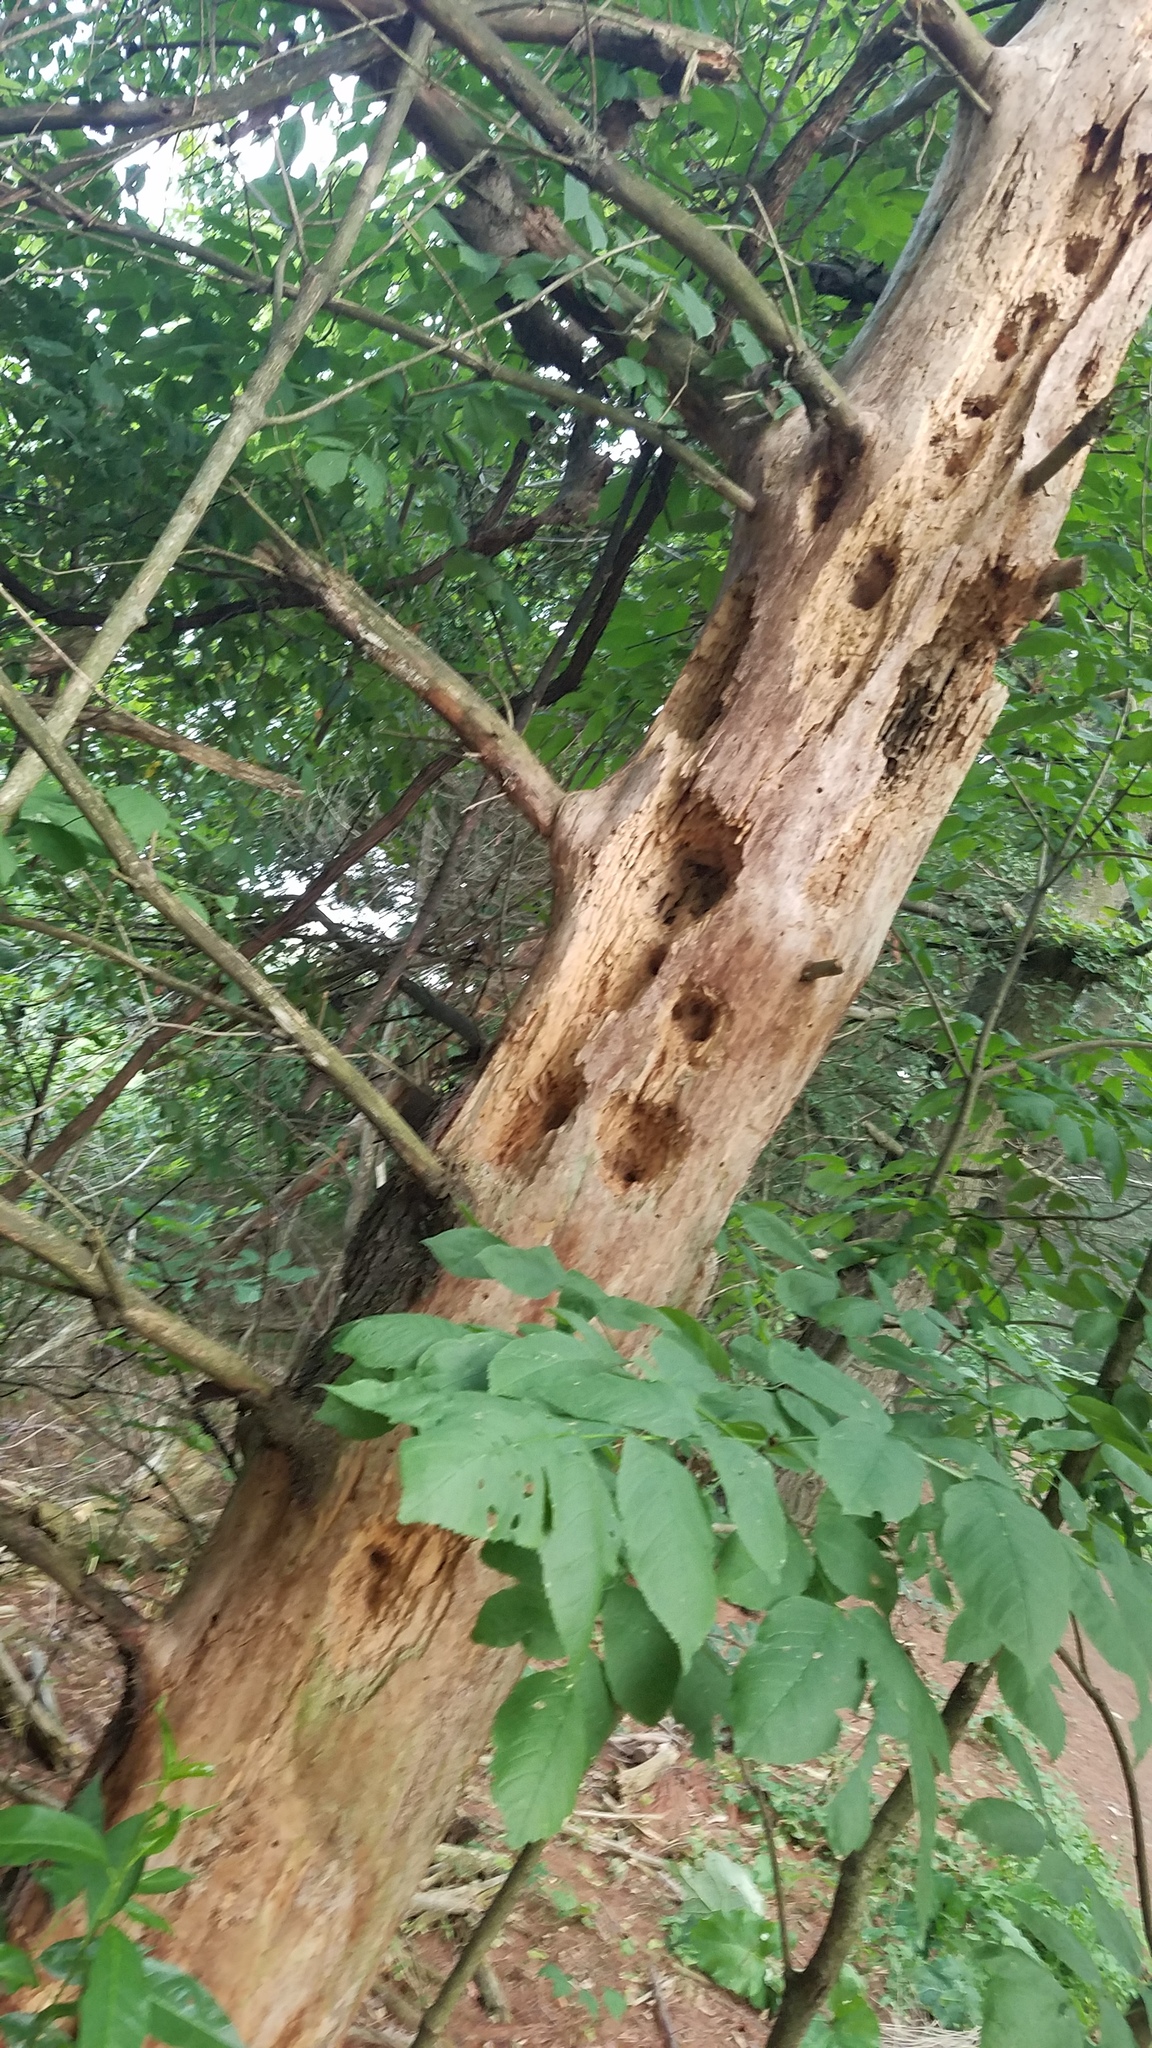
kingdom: Animalia
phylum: Chordata
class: Aves
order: Piciformes
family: Picidae
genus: Dryocopus
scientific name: Dryocopus pileatus
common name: Pileated woodpecker
